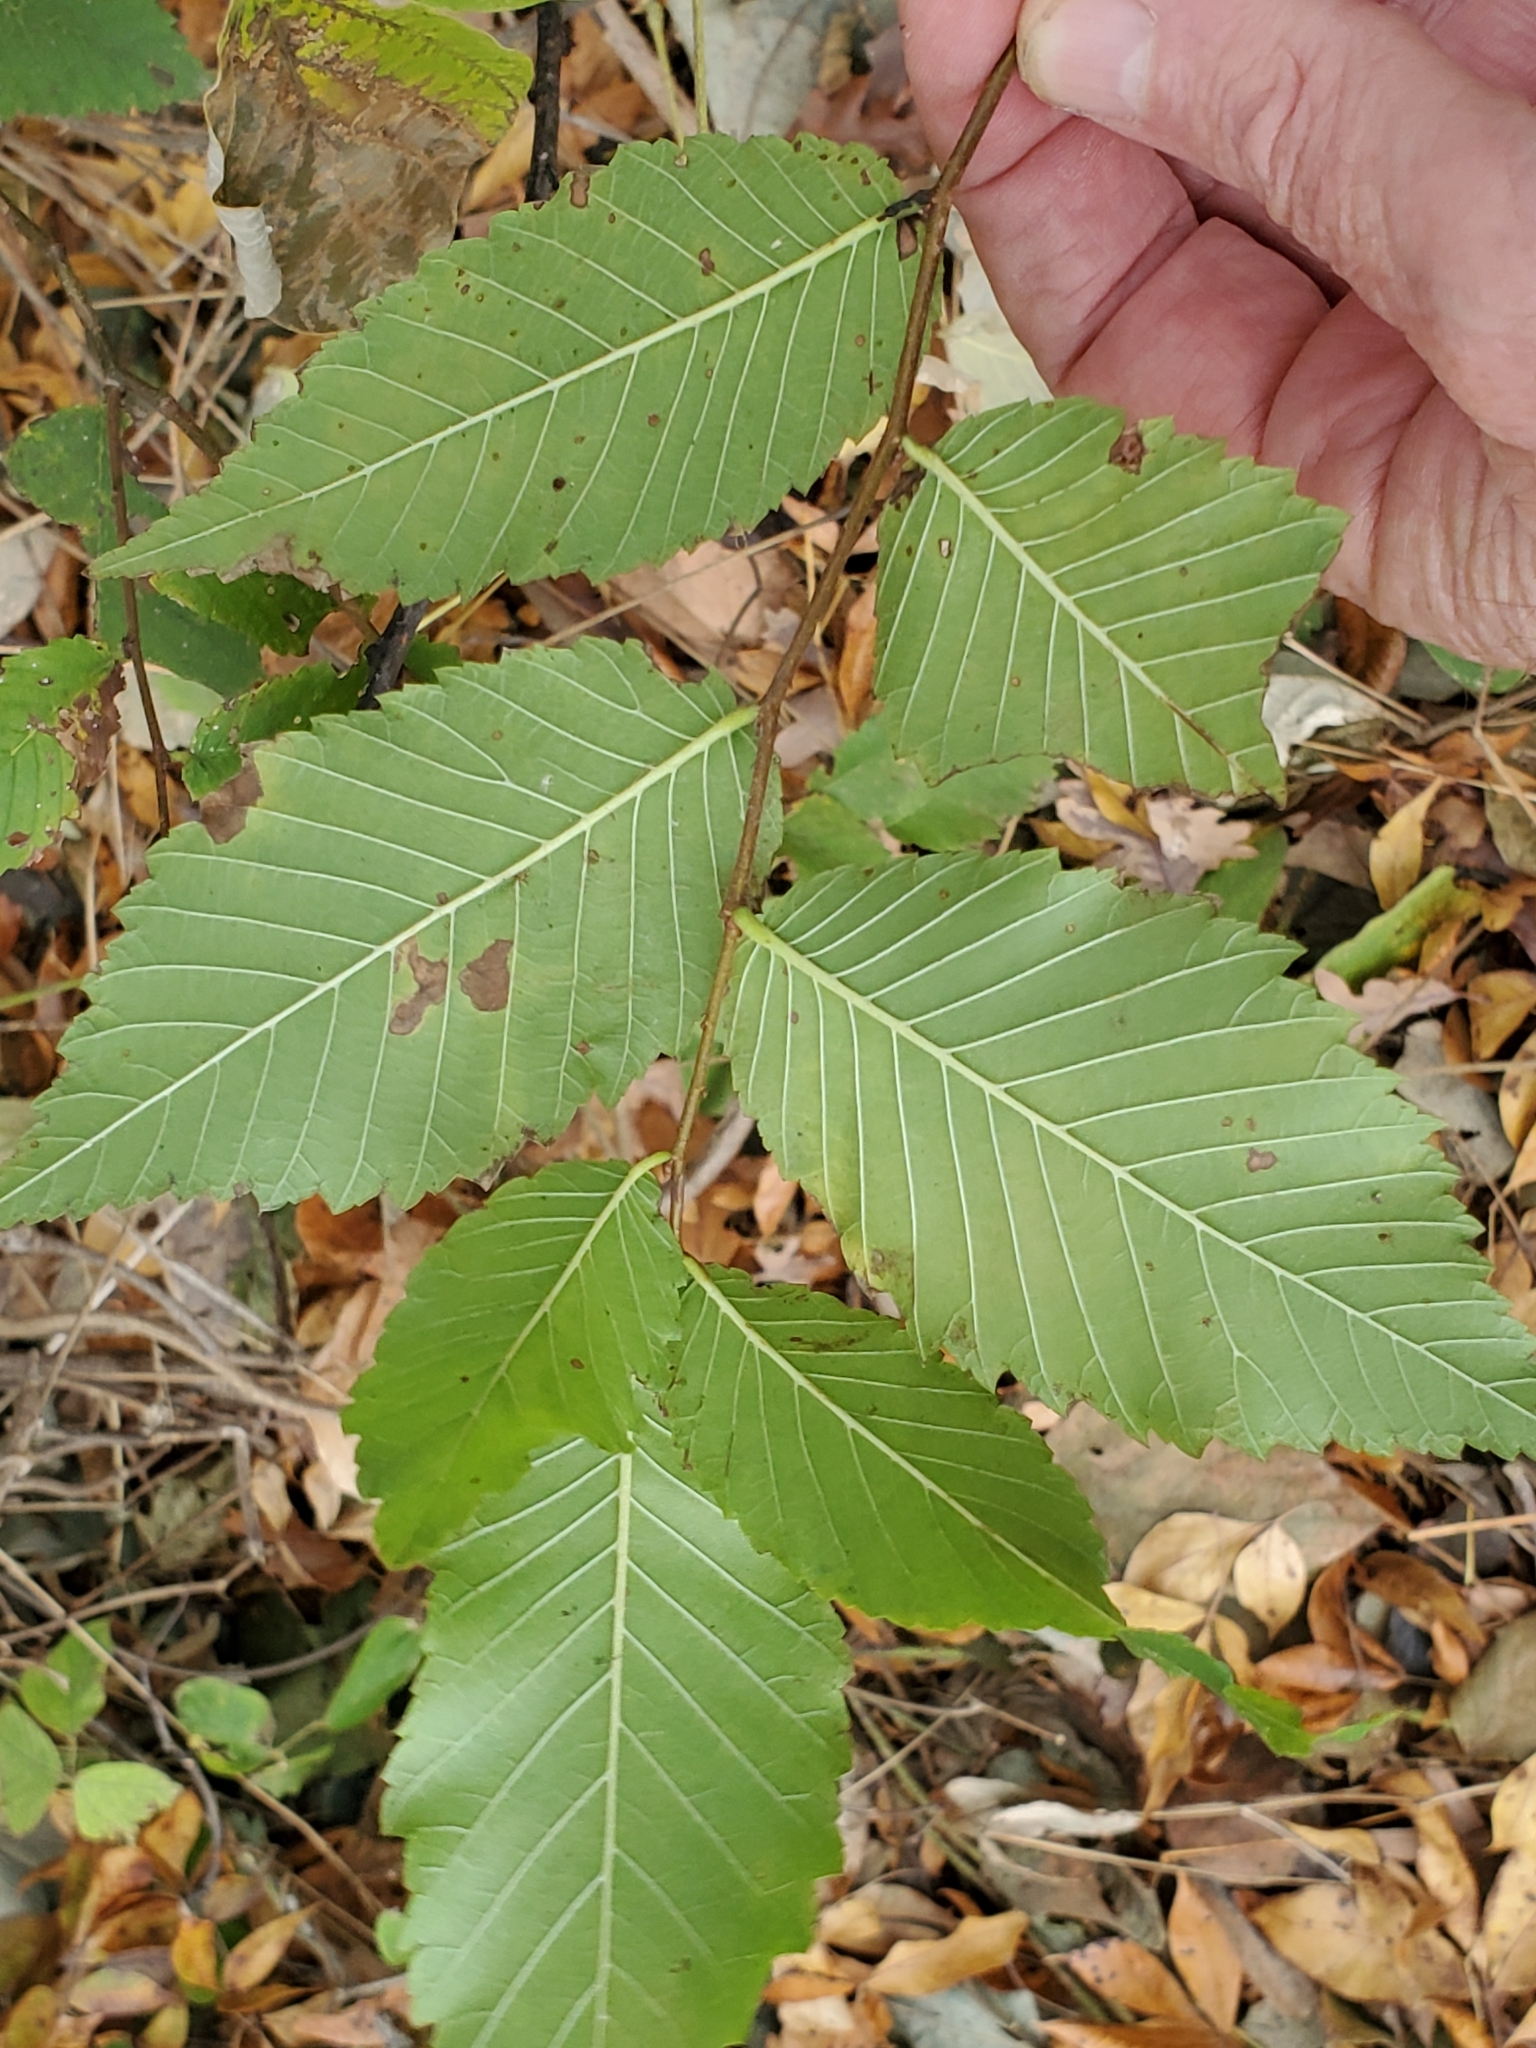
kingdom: Plantae
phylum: Tracheophyta
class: Magnoliopsida
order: Rosales
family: Ulmaceae
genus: Ulmus
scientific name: Ulmus americana
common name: American elm
